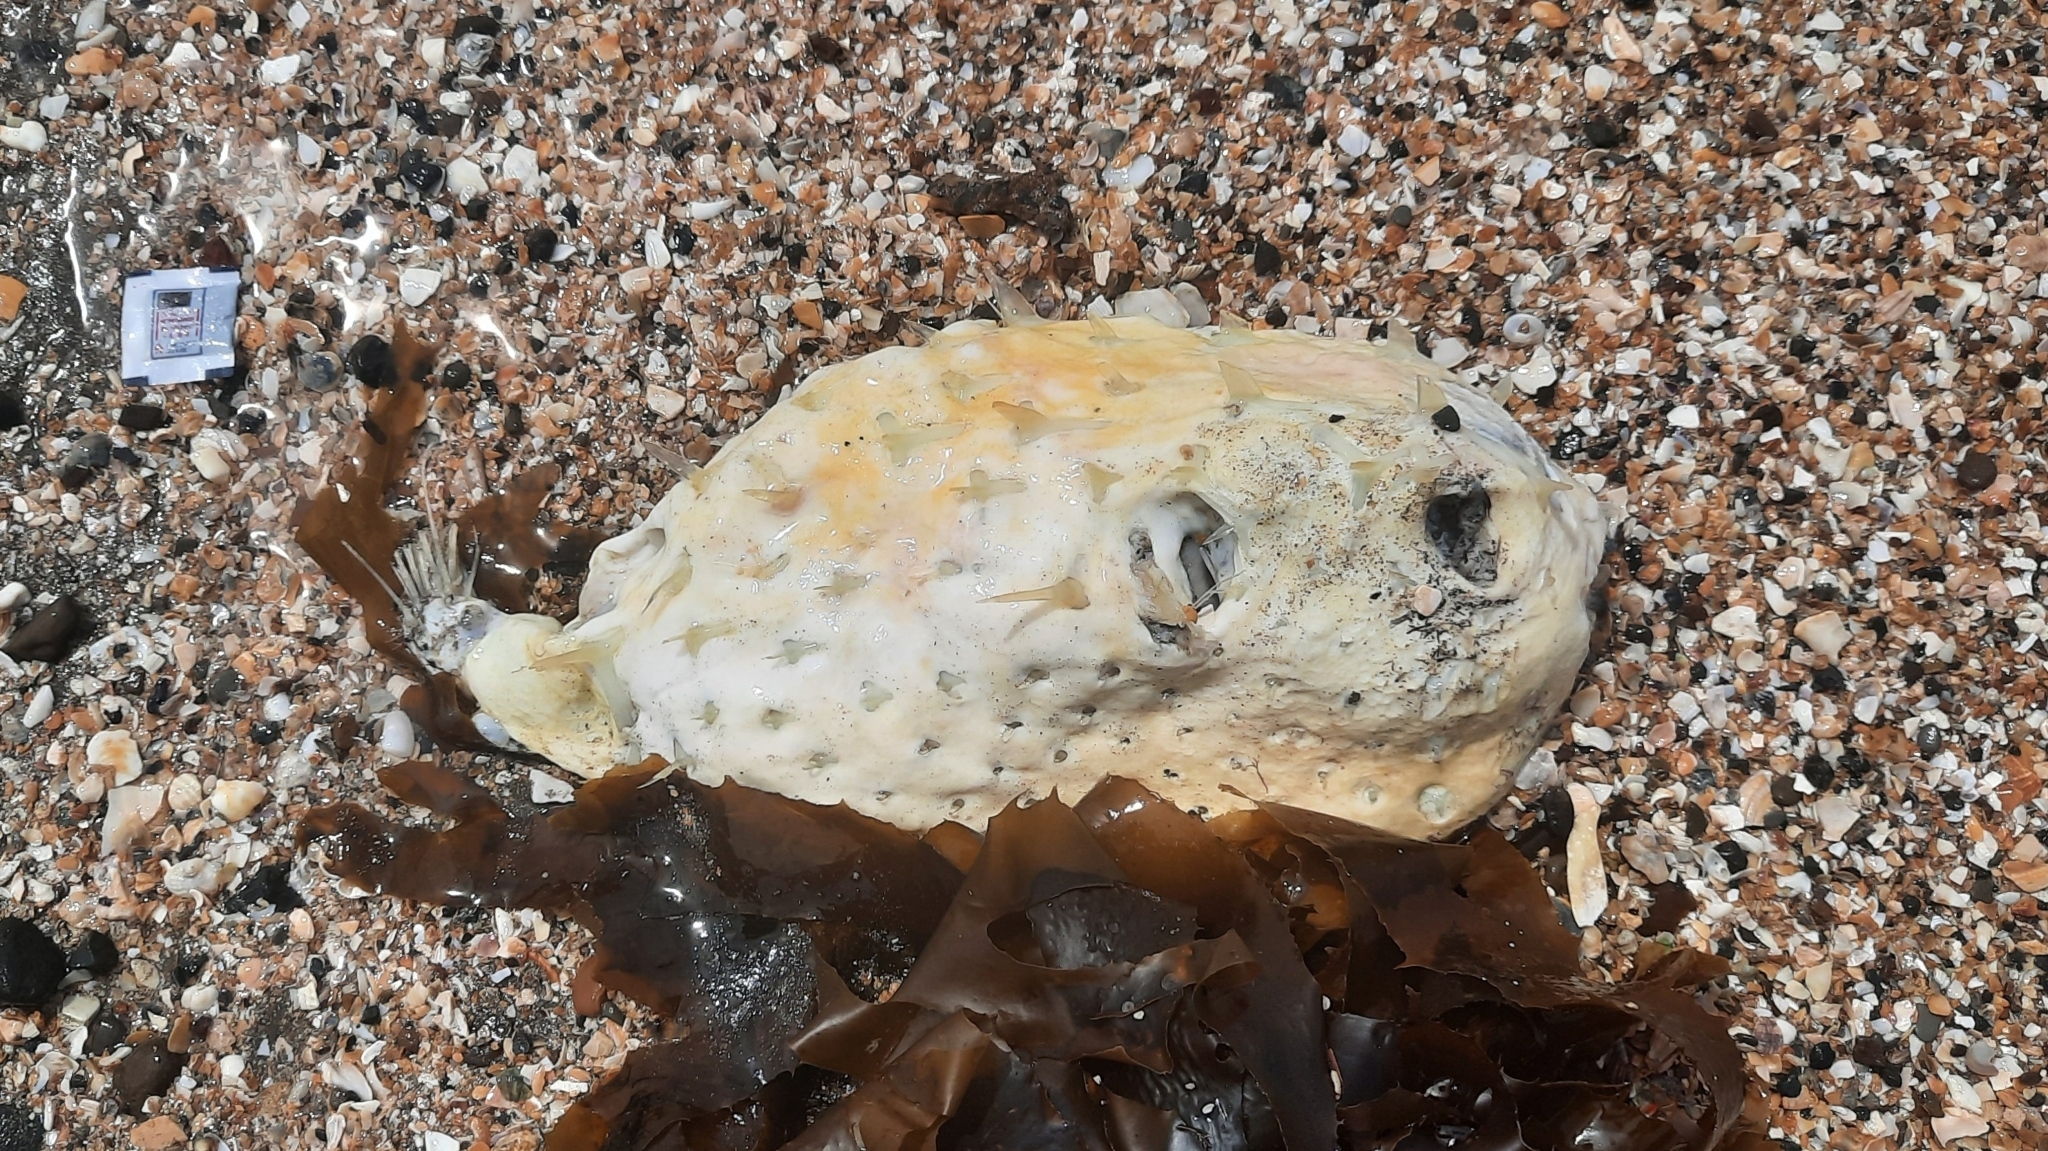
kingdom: Animalia
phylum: Chordata
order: Tetraodontiformes
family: Diodontidae
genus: Allomycterus
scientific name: Allomycterus pilatus
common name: No common name
